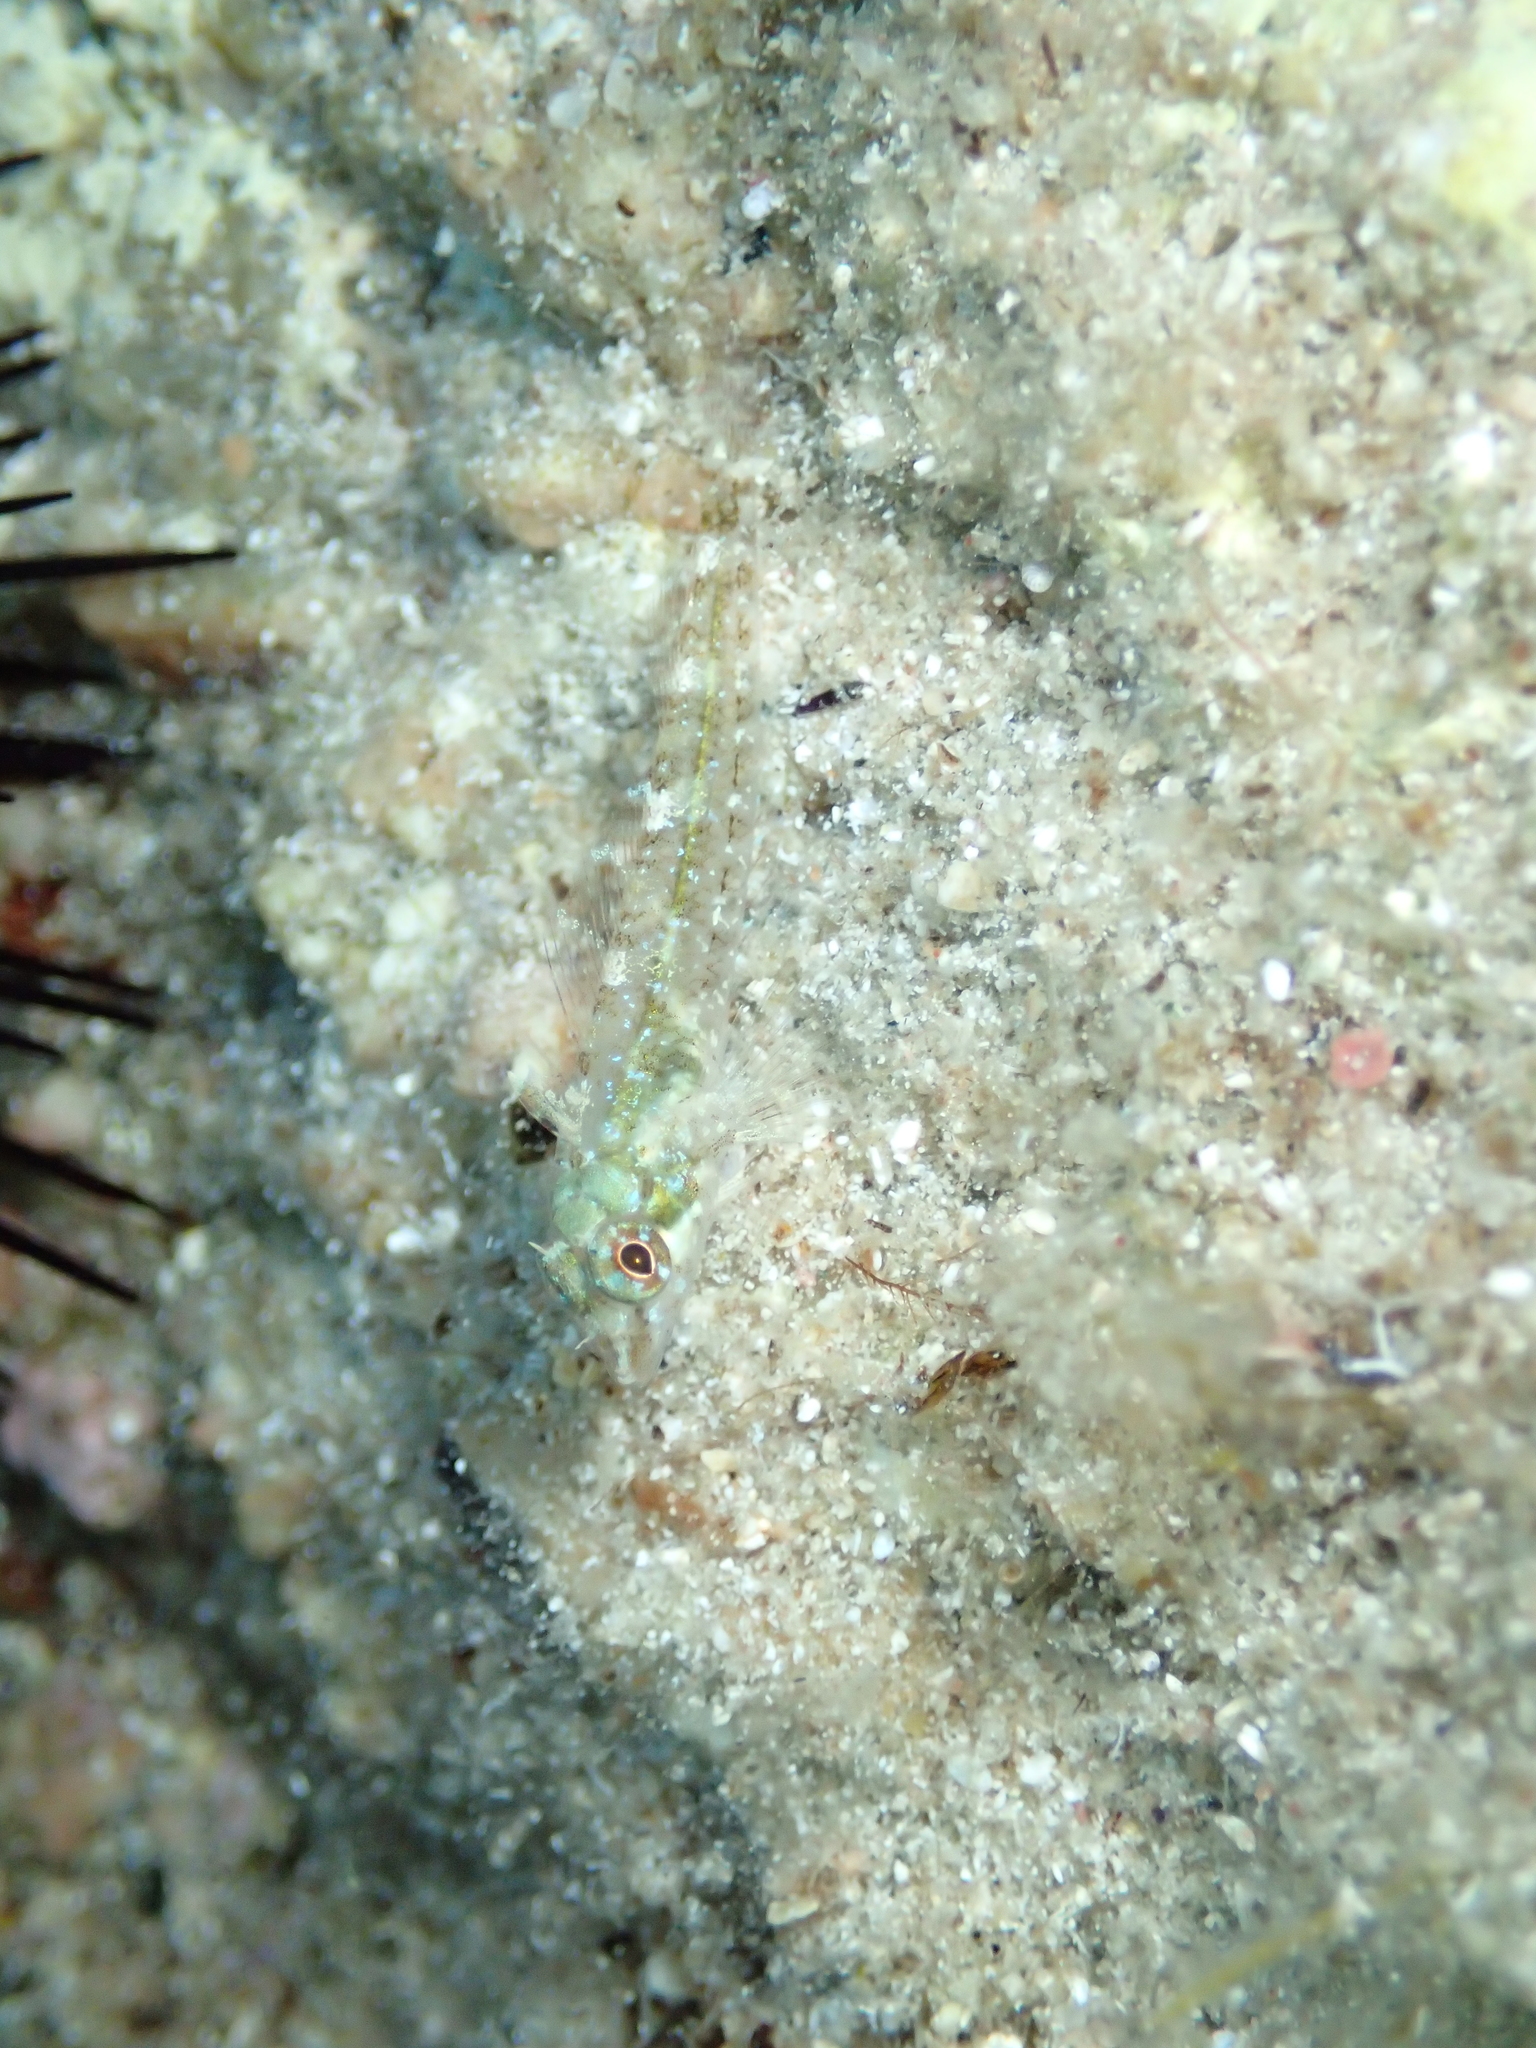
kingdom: Animalia
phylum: Chordata
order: Perciformes
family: Tripterygiidae
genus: Tripterygion
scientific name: Tripterygion tripteronotum
